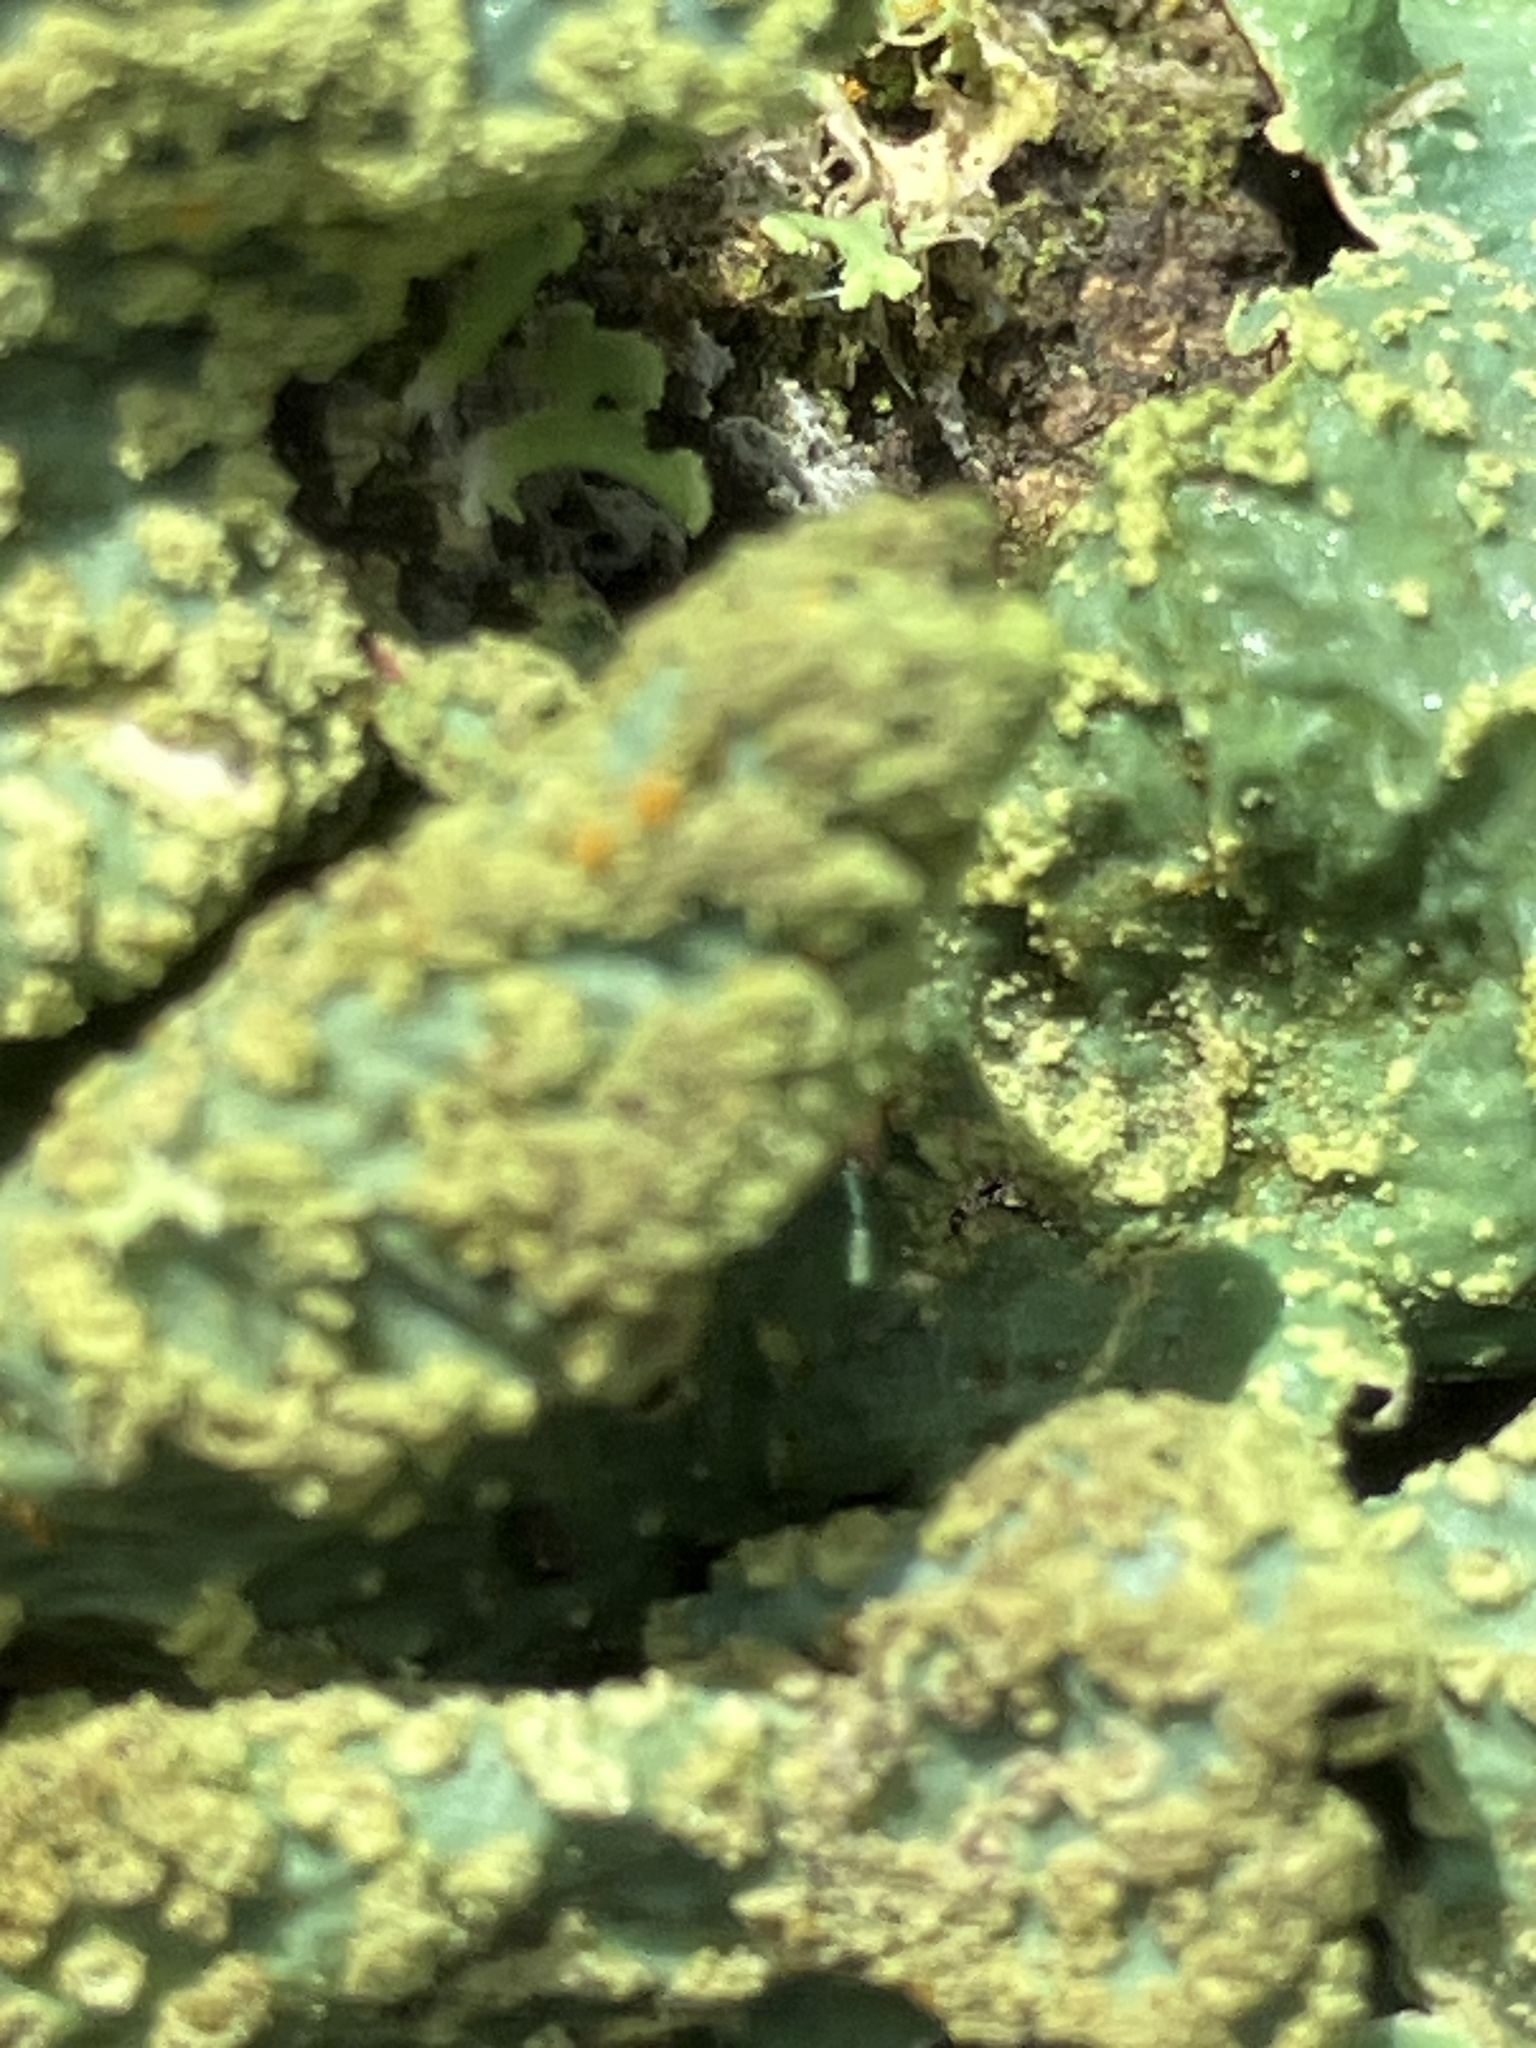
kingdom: Fungi
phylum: Ascomycota
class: Lecanoromycetes
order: Lecanorales
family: Parmeliaceae
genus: Parmelia
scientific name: Parmelia sulcata
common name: Netted shield lichen
